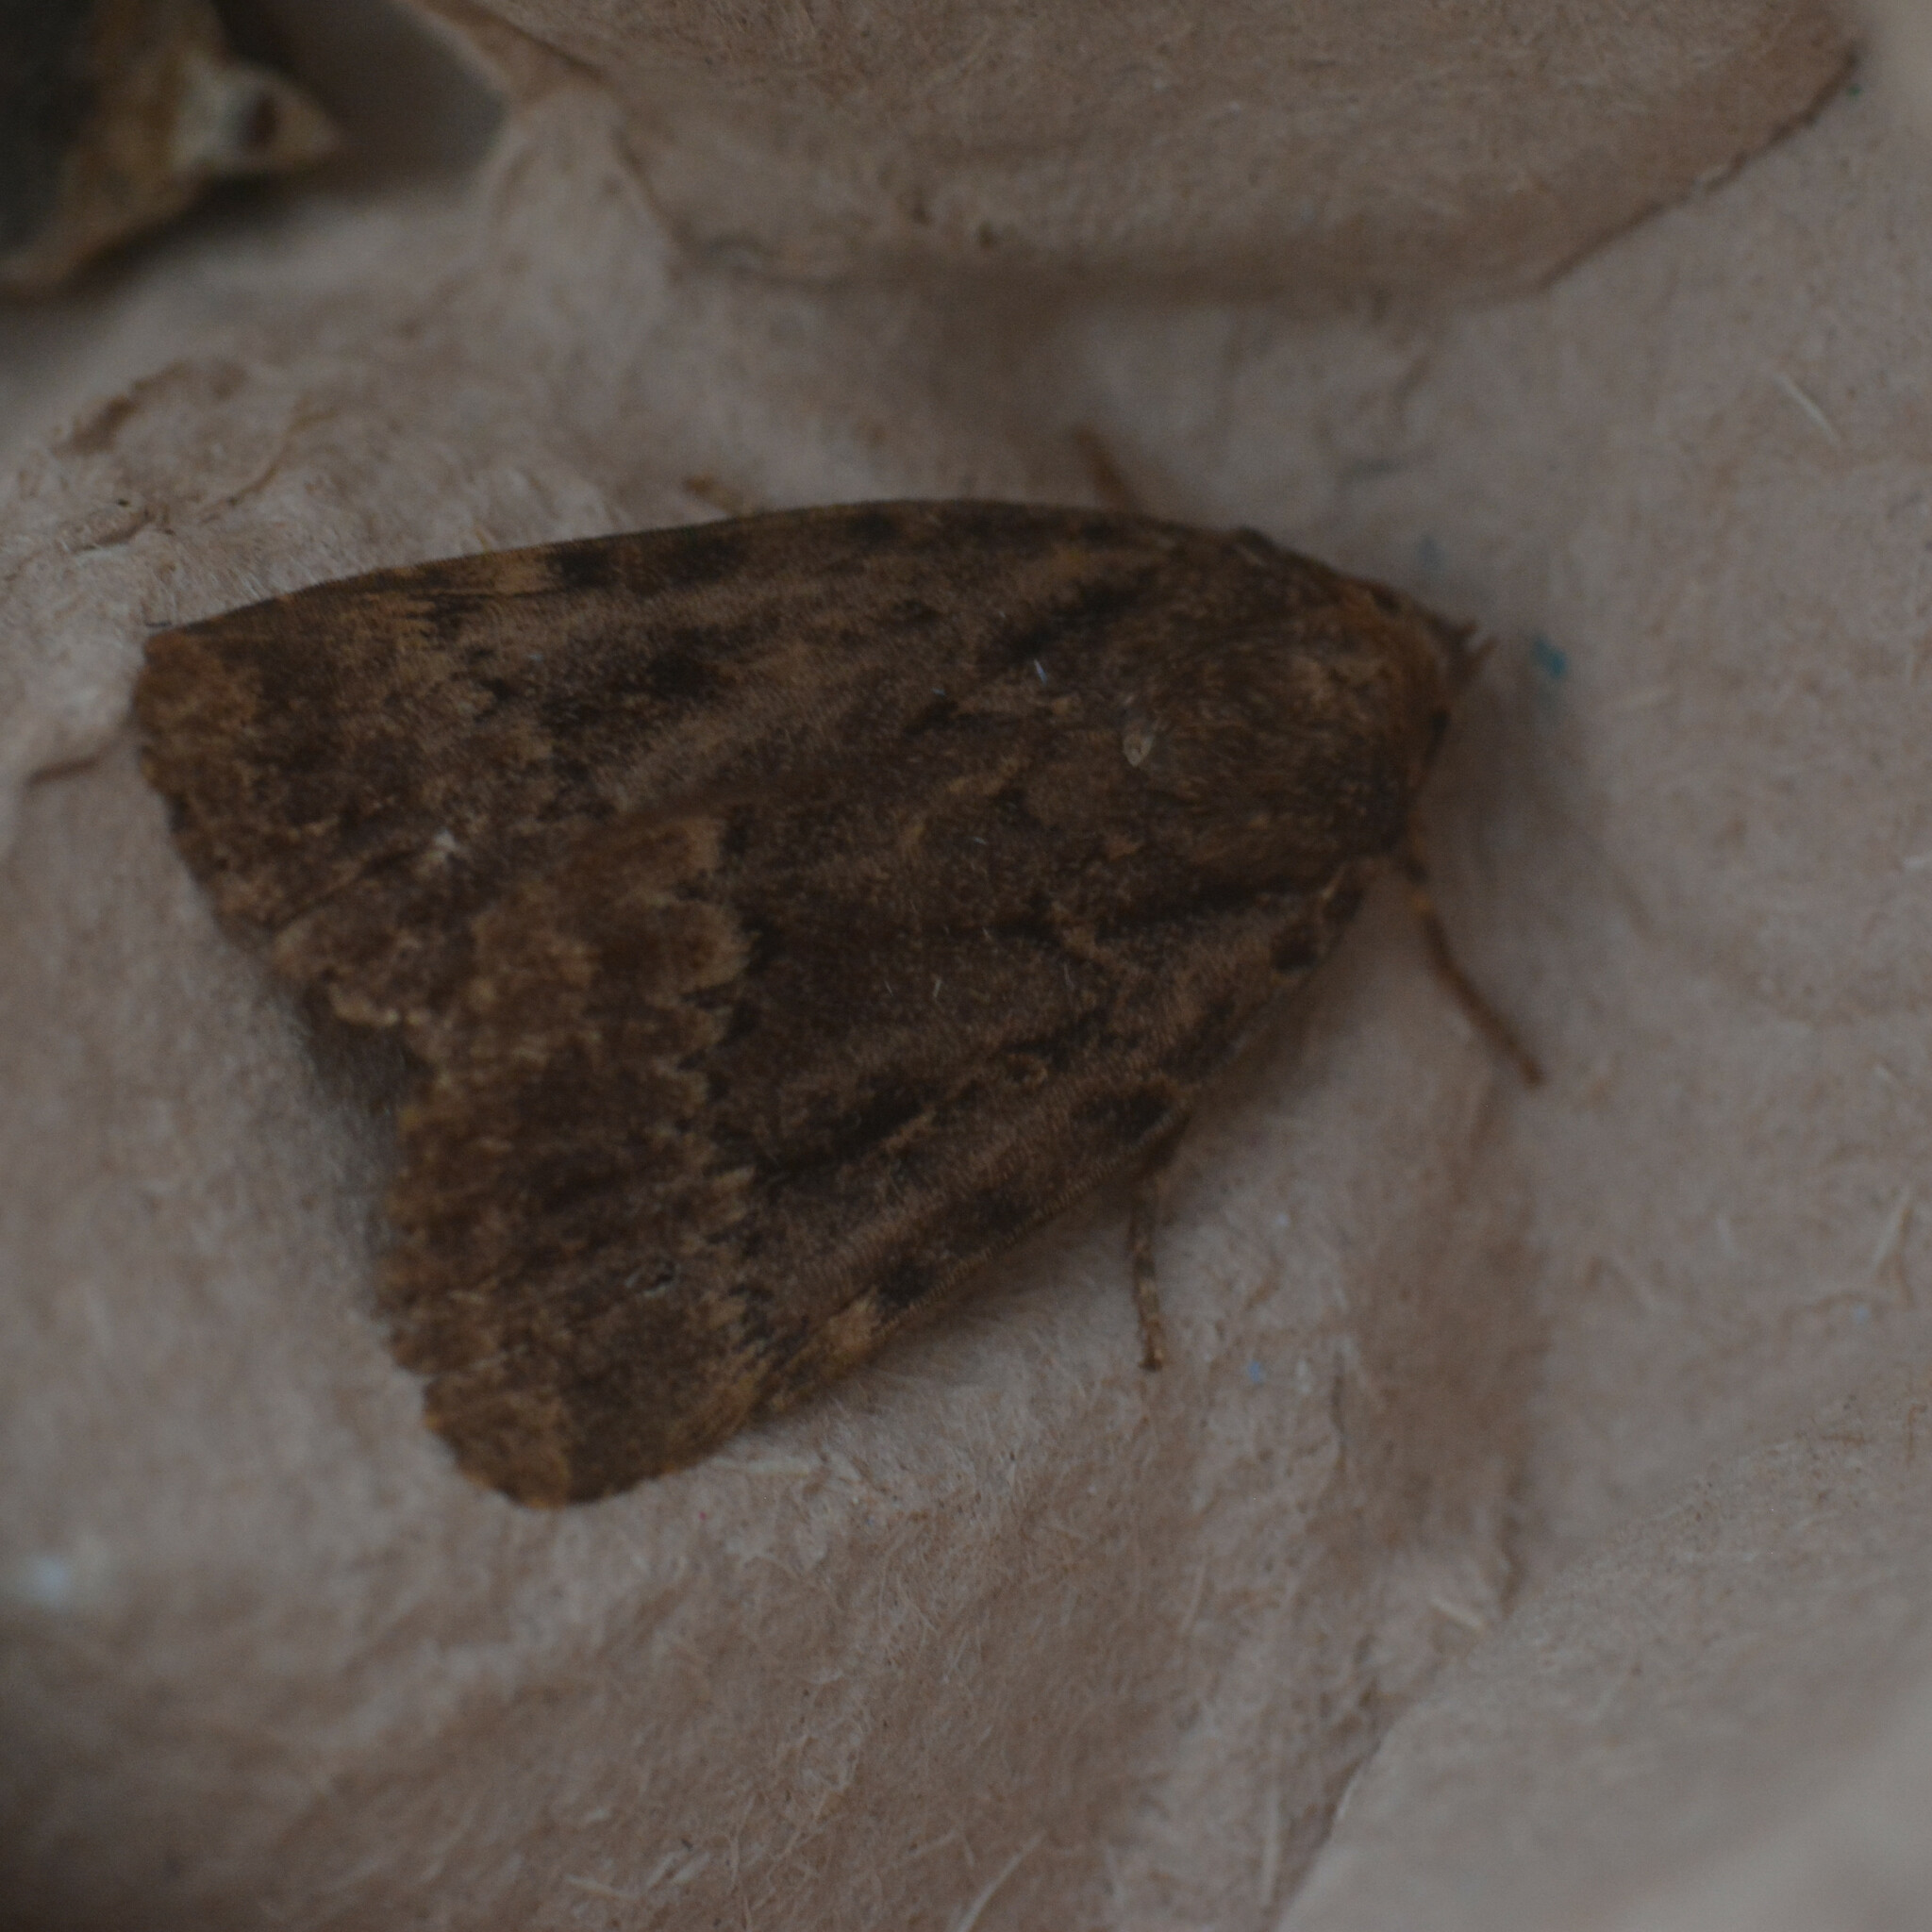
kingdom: Animalia
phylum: Arthropoda
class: Insecta
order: Lepidoptera
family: Noctuidae
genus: Amphipyra
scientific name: Amphipyra
